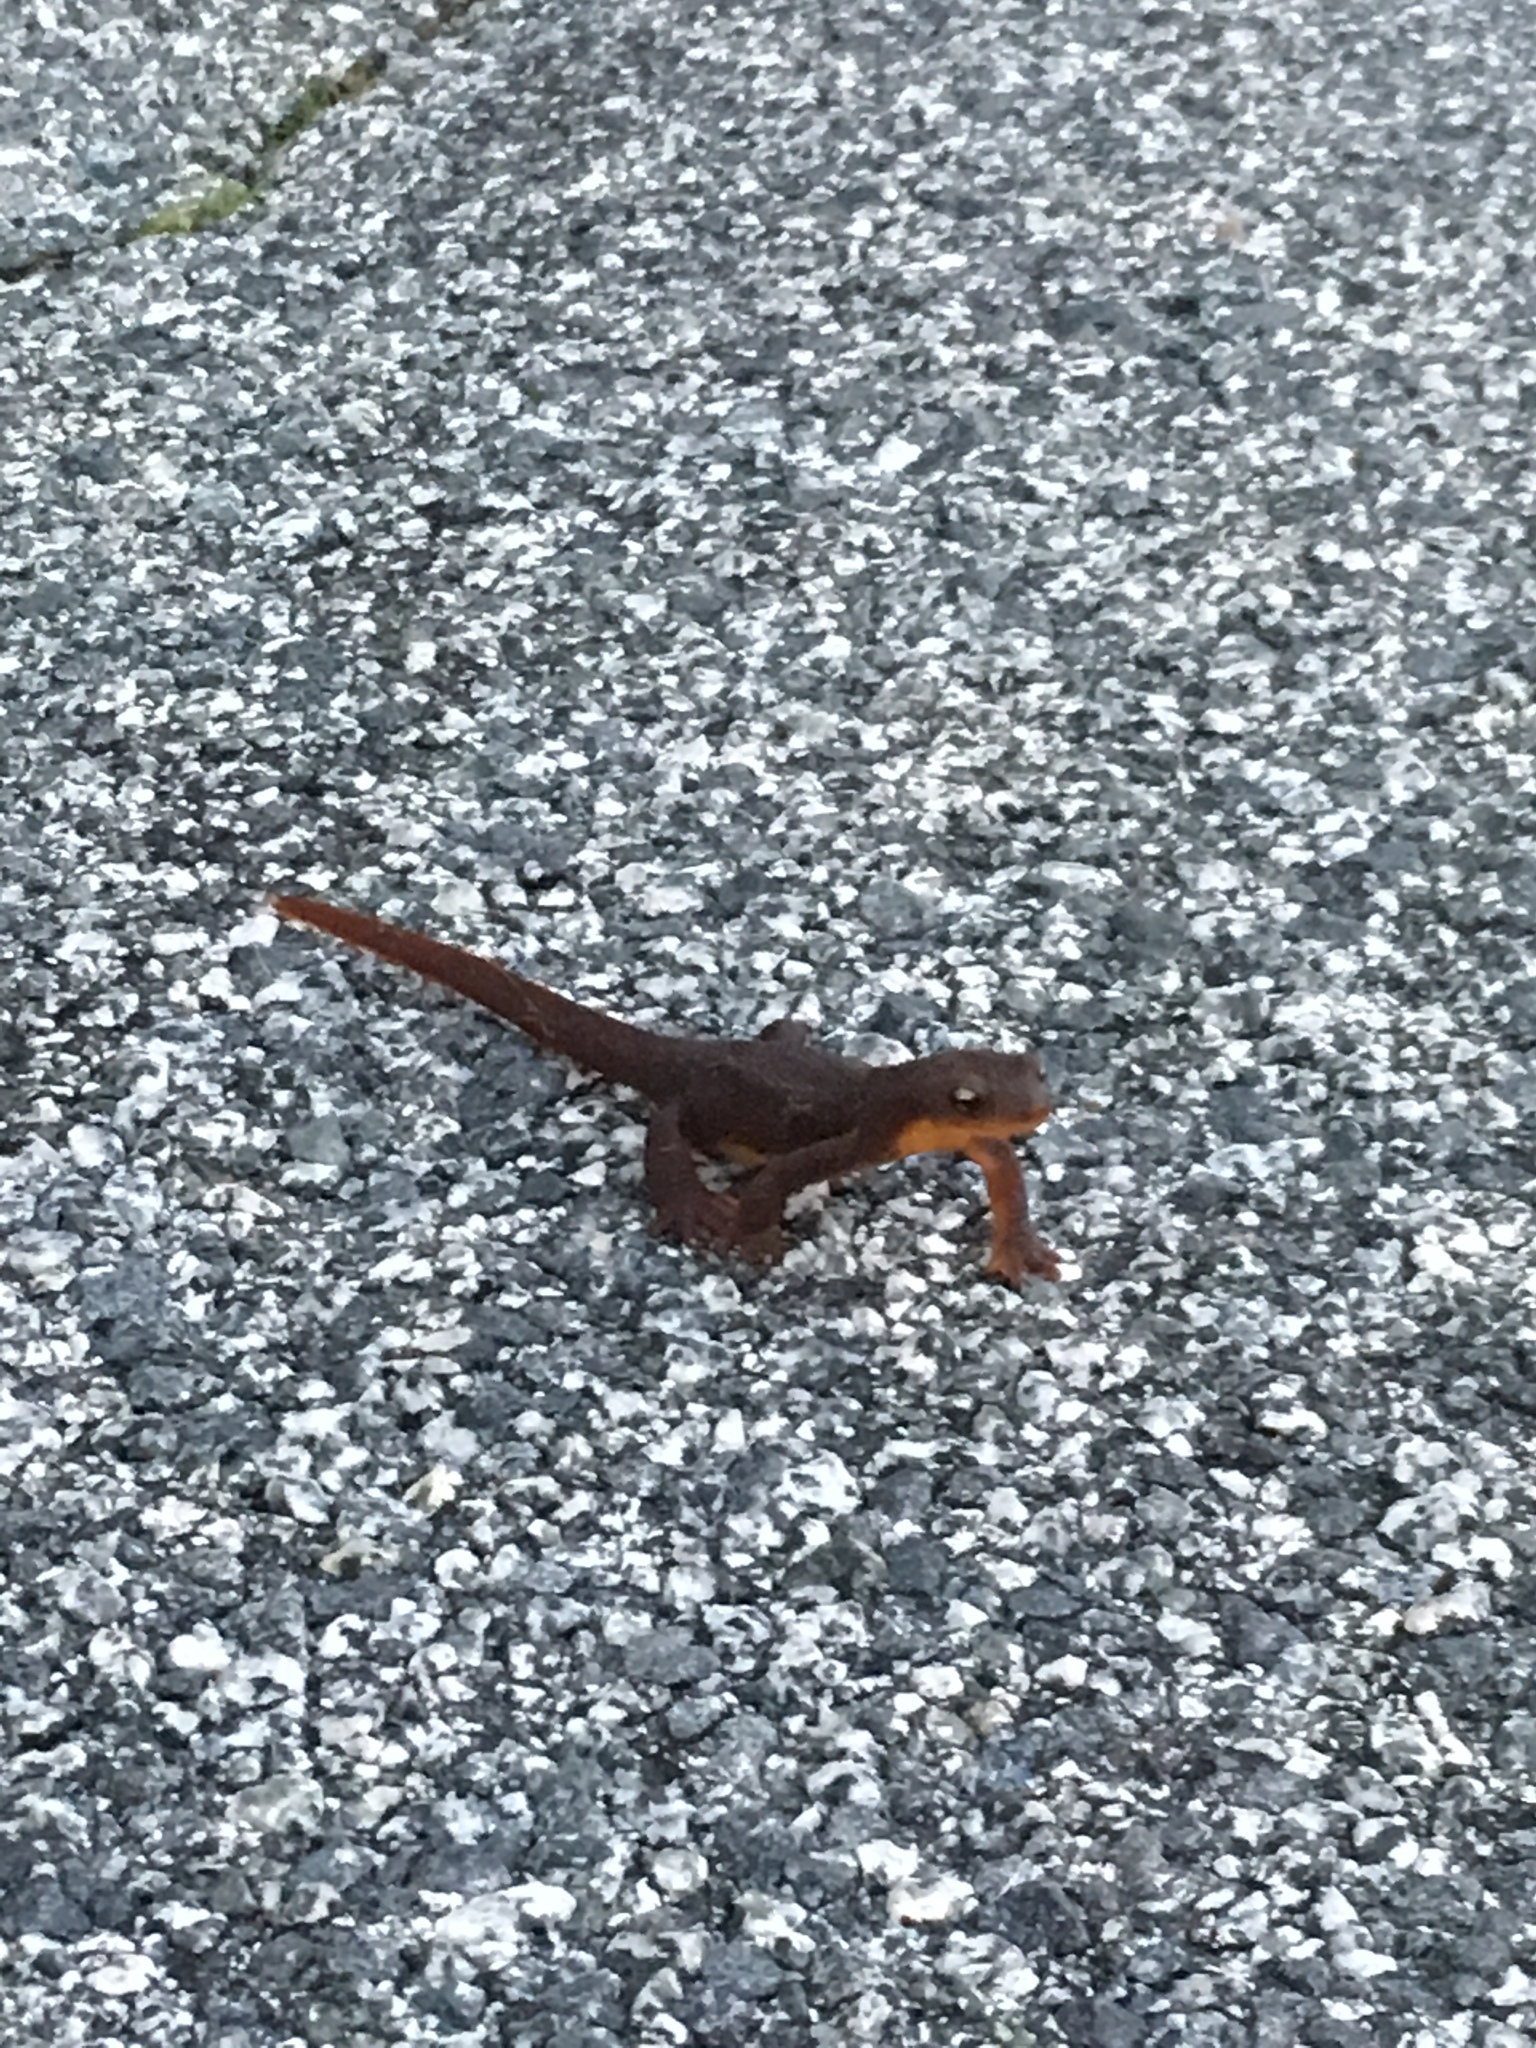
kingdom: Animalia
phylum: Chordata
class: Amphibia
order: Caudata
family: Salamandridae
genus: Taricha
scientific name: Taricha torosa
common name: California newt
